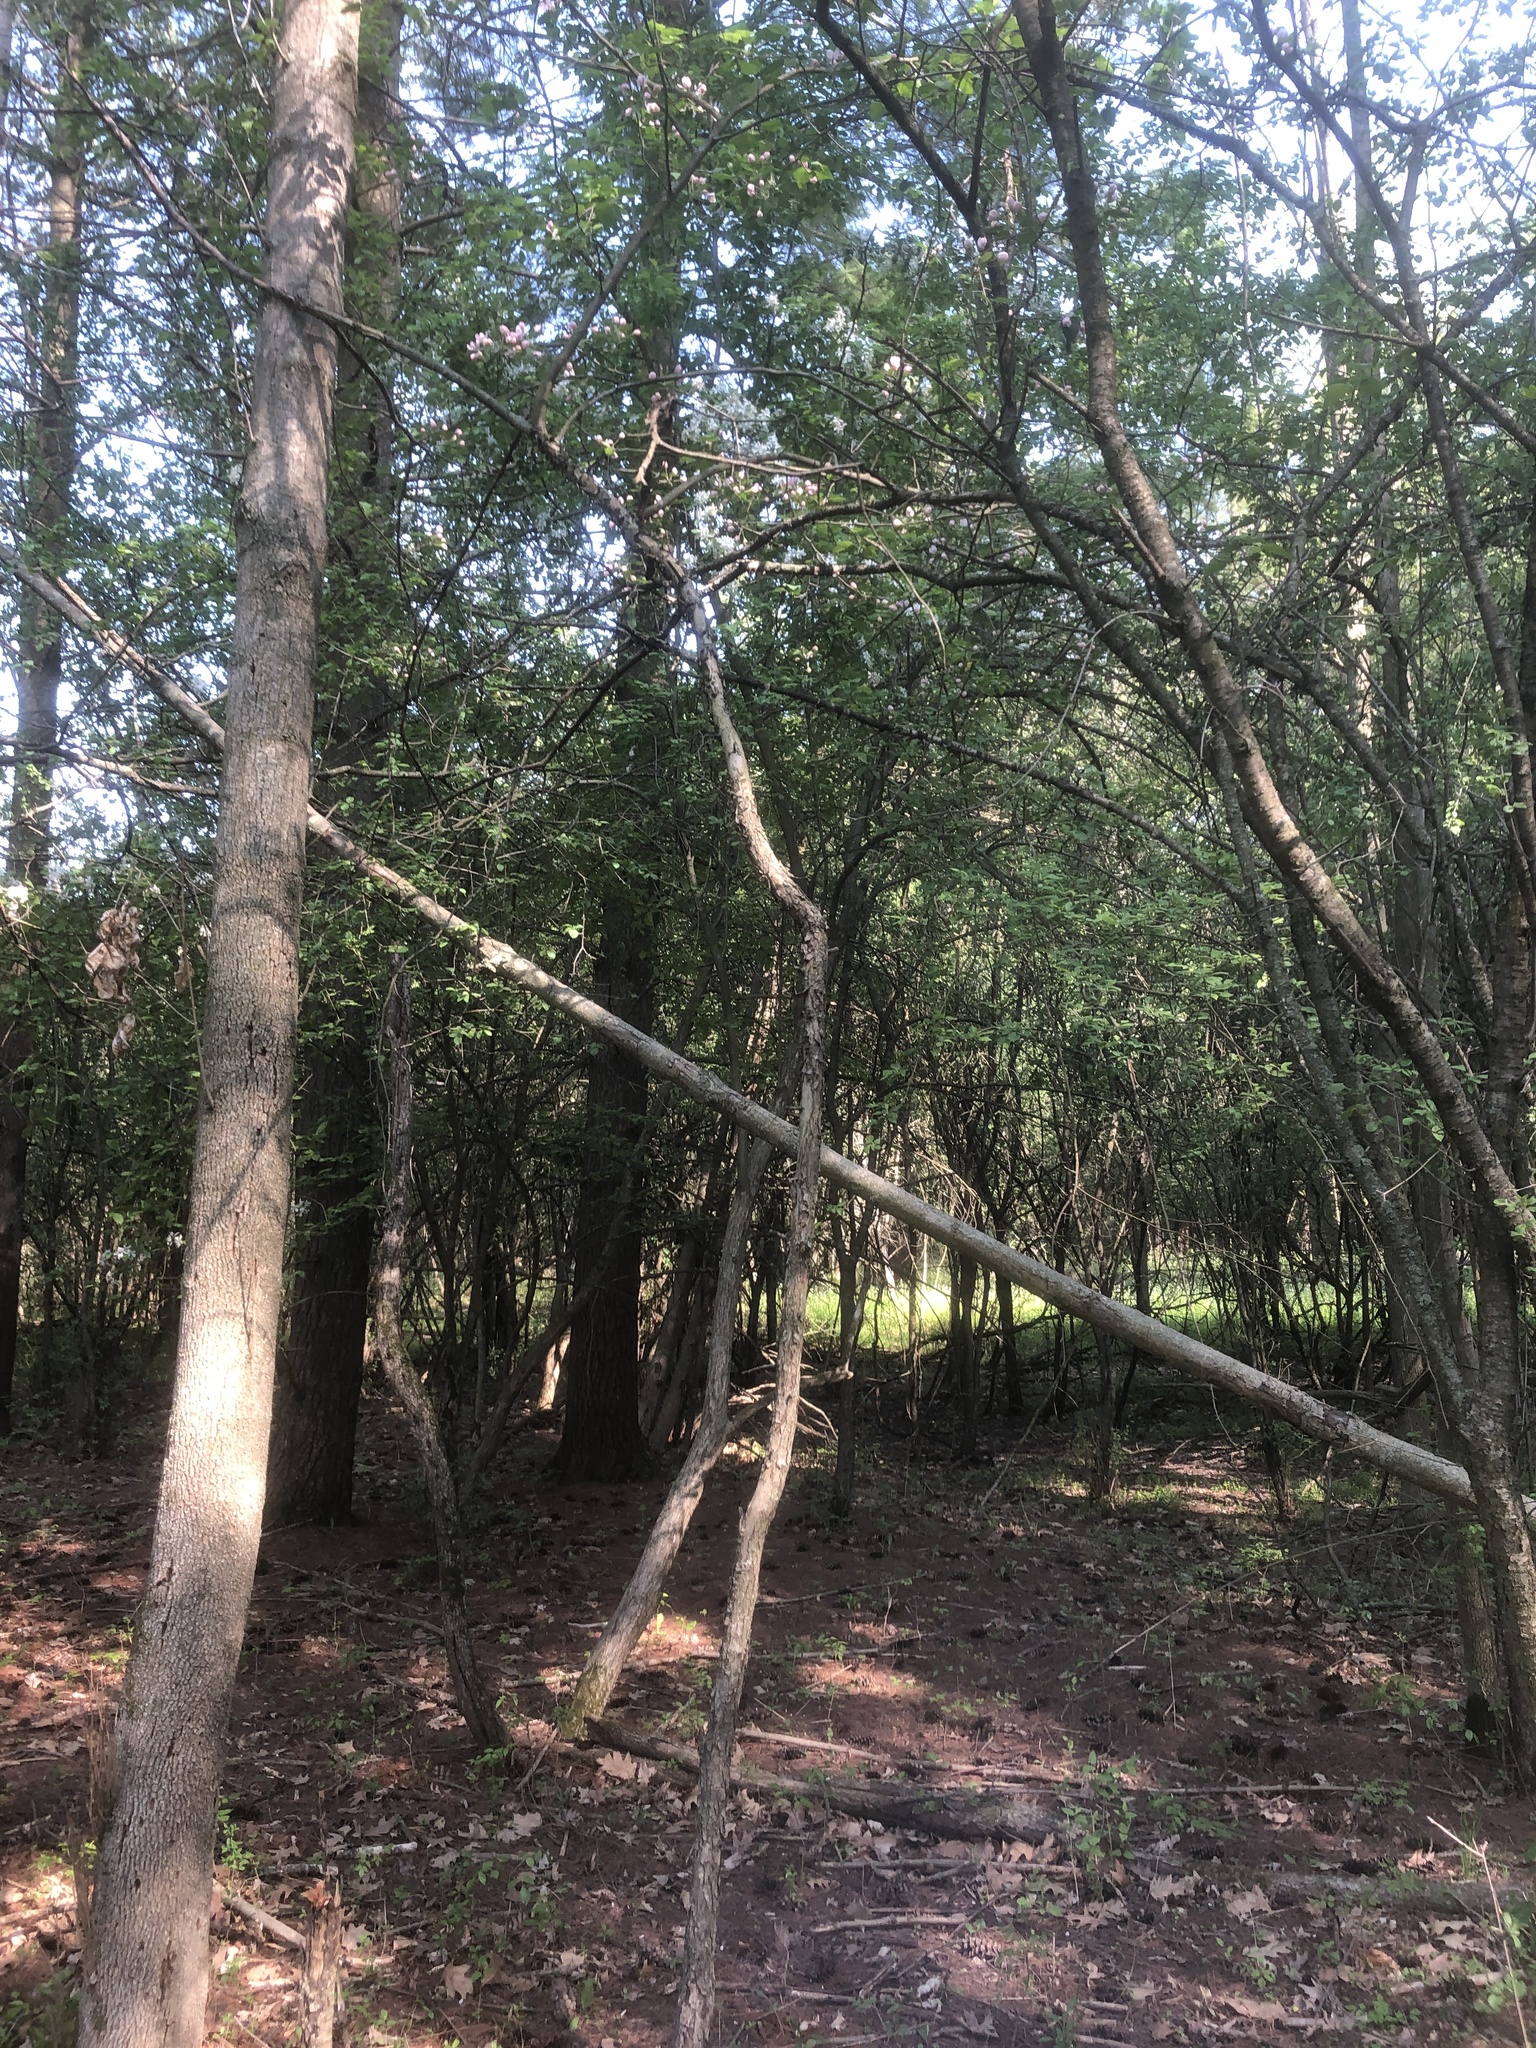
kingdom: Plantae
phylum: Tracheophyta
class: Magnoliopsida
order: Rosales
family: Rosaceae
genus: Malus
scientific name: Malus coronaria
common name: Sweet crab apple
